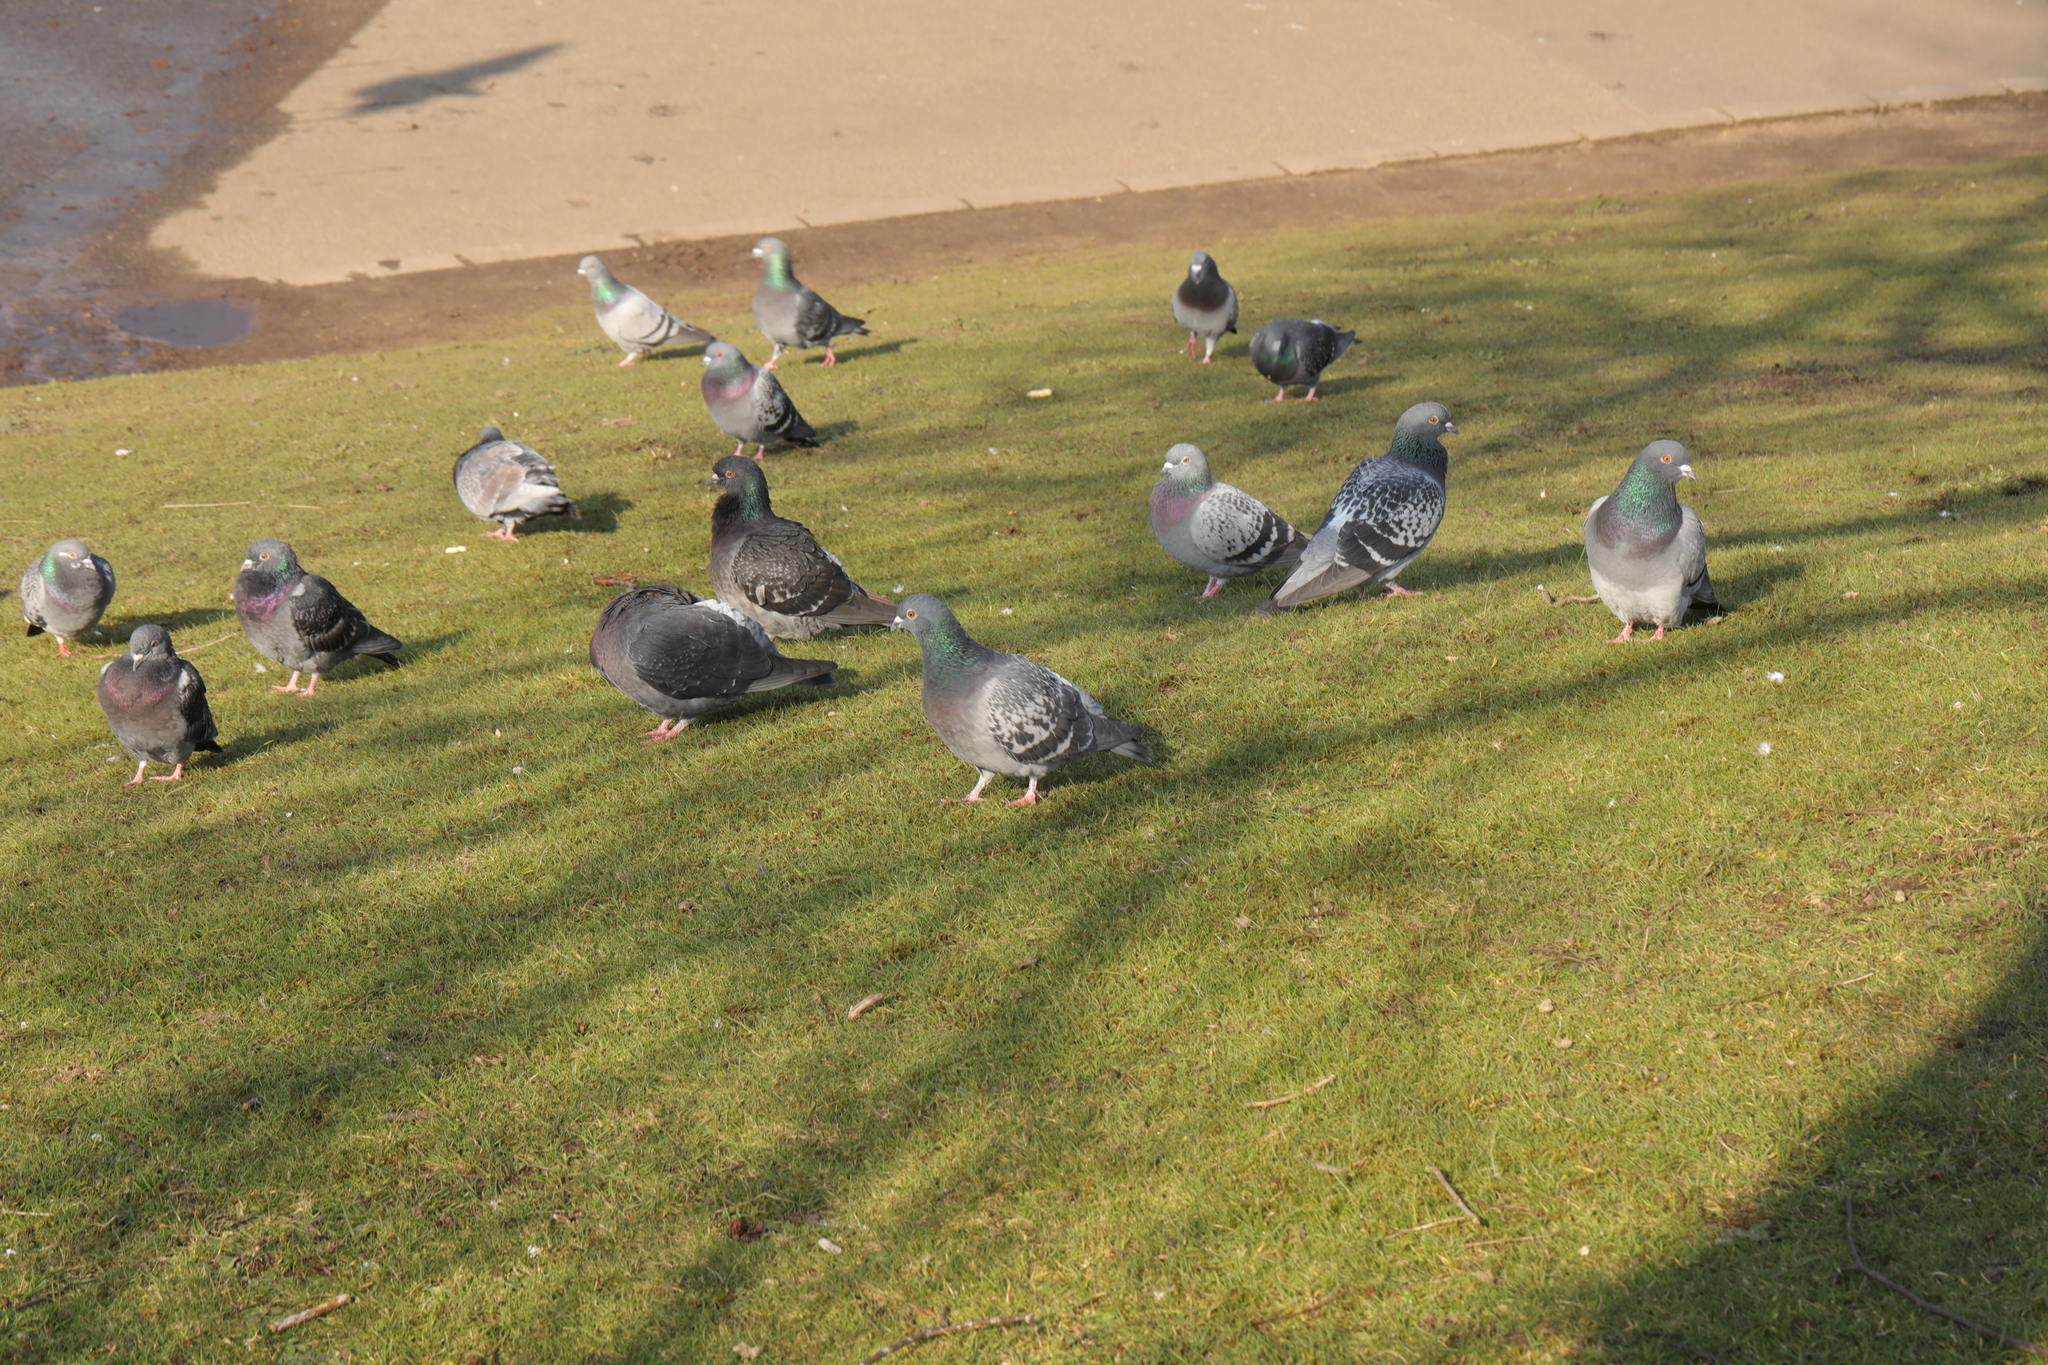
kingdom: Animalia
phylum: Chordata
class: Aves
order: Columbiformes
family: Columbidae
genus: Columba
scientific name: Columba livia
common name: Rock pigeon
